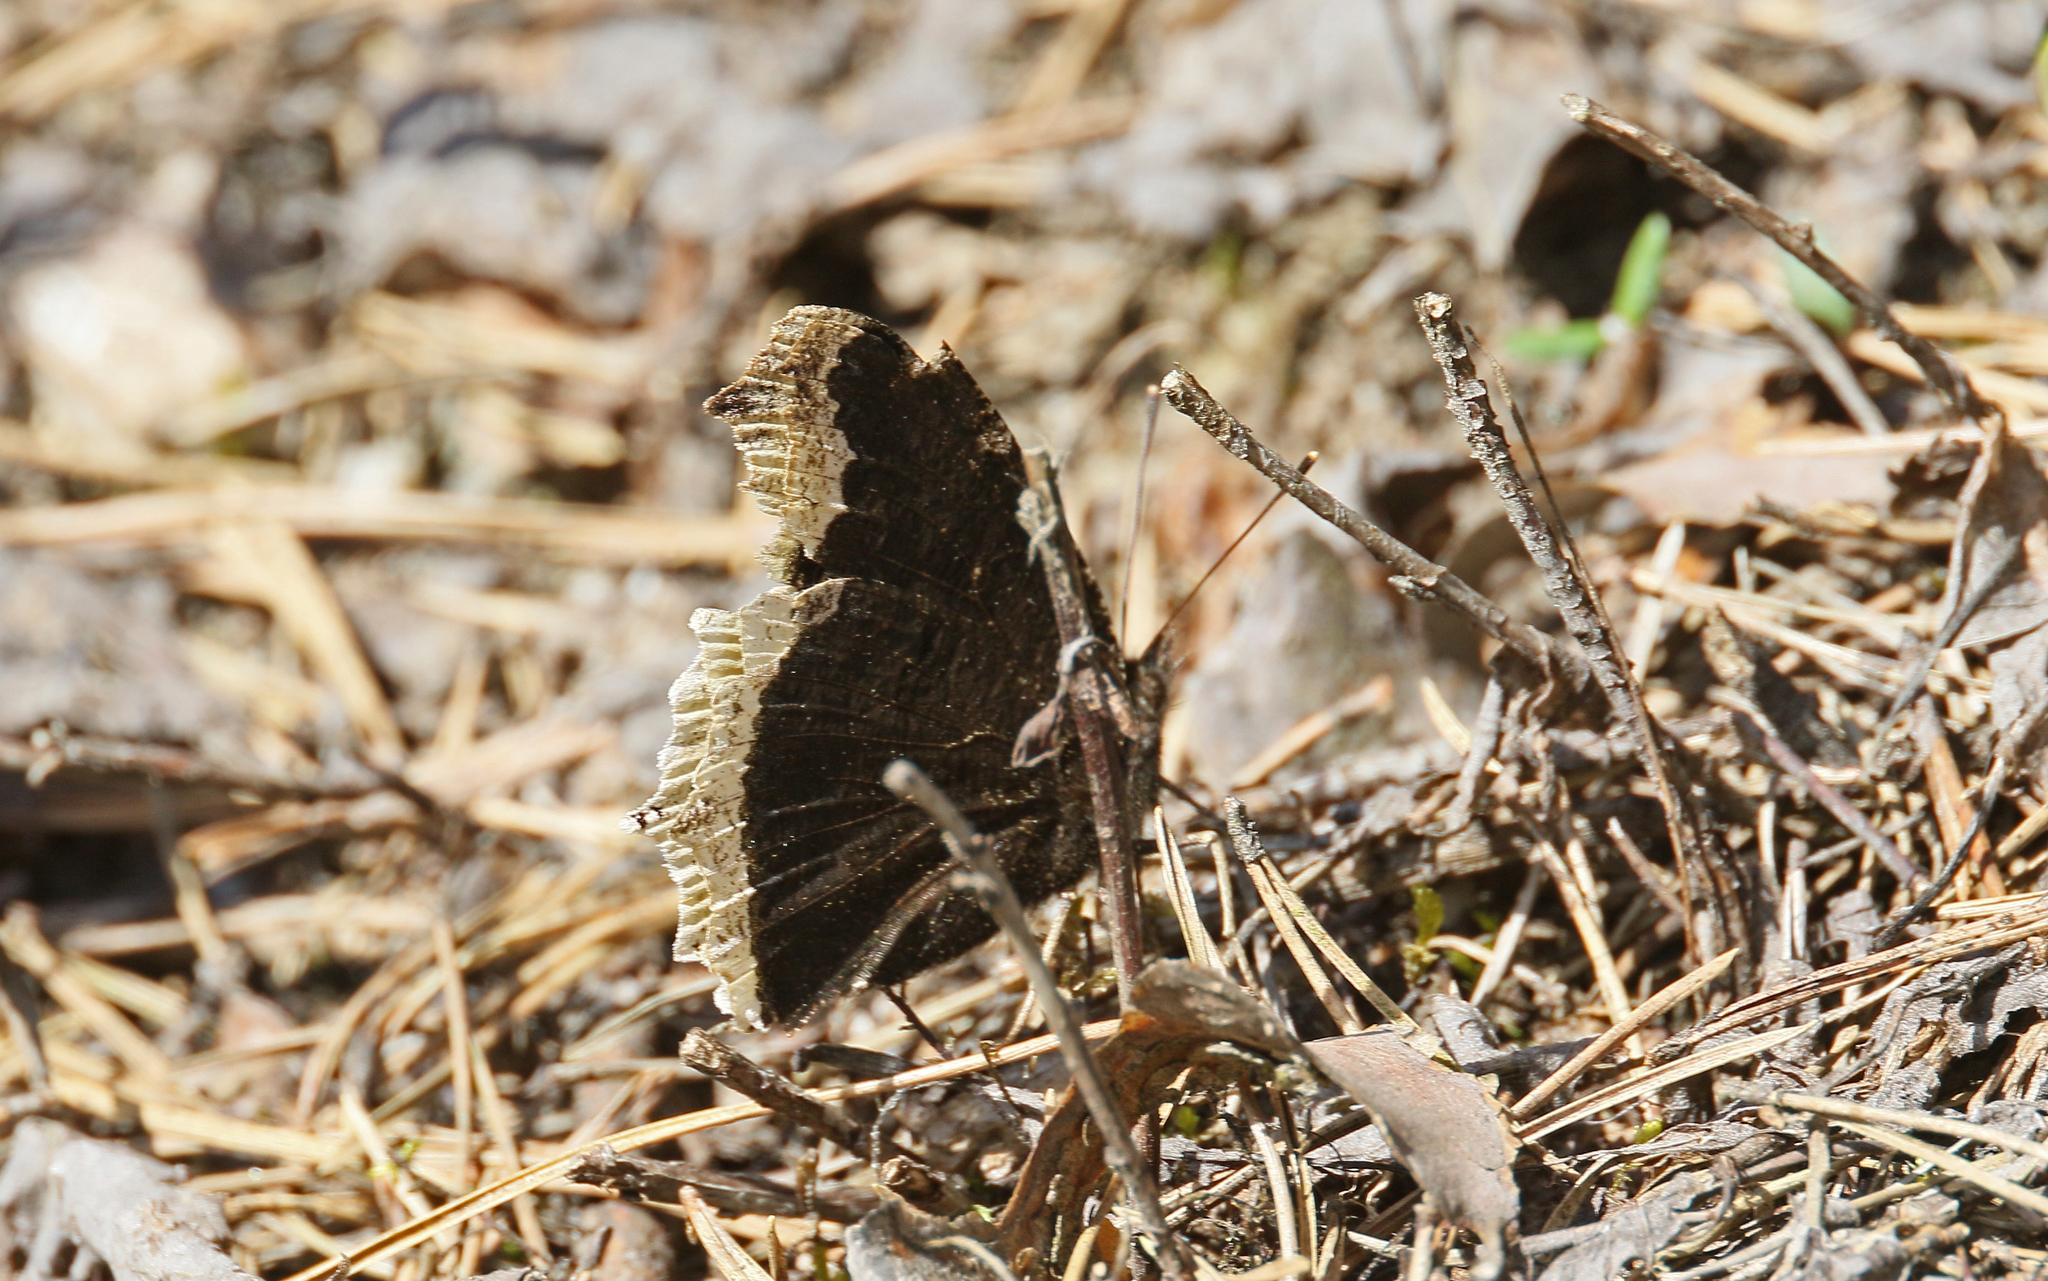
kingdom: Animalia
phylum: Arthropoda
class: Insecta
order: Lepidoptera
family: Nymphalidae
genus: Nymphalis
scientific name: Nymphalis antiopa
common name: Camberwell beauty
